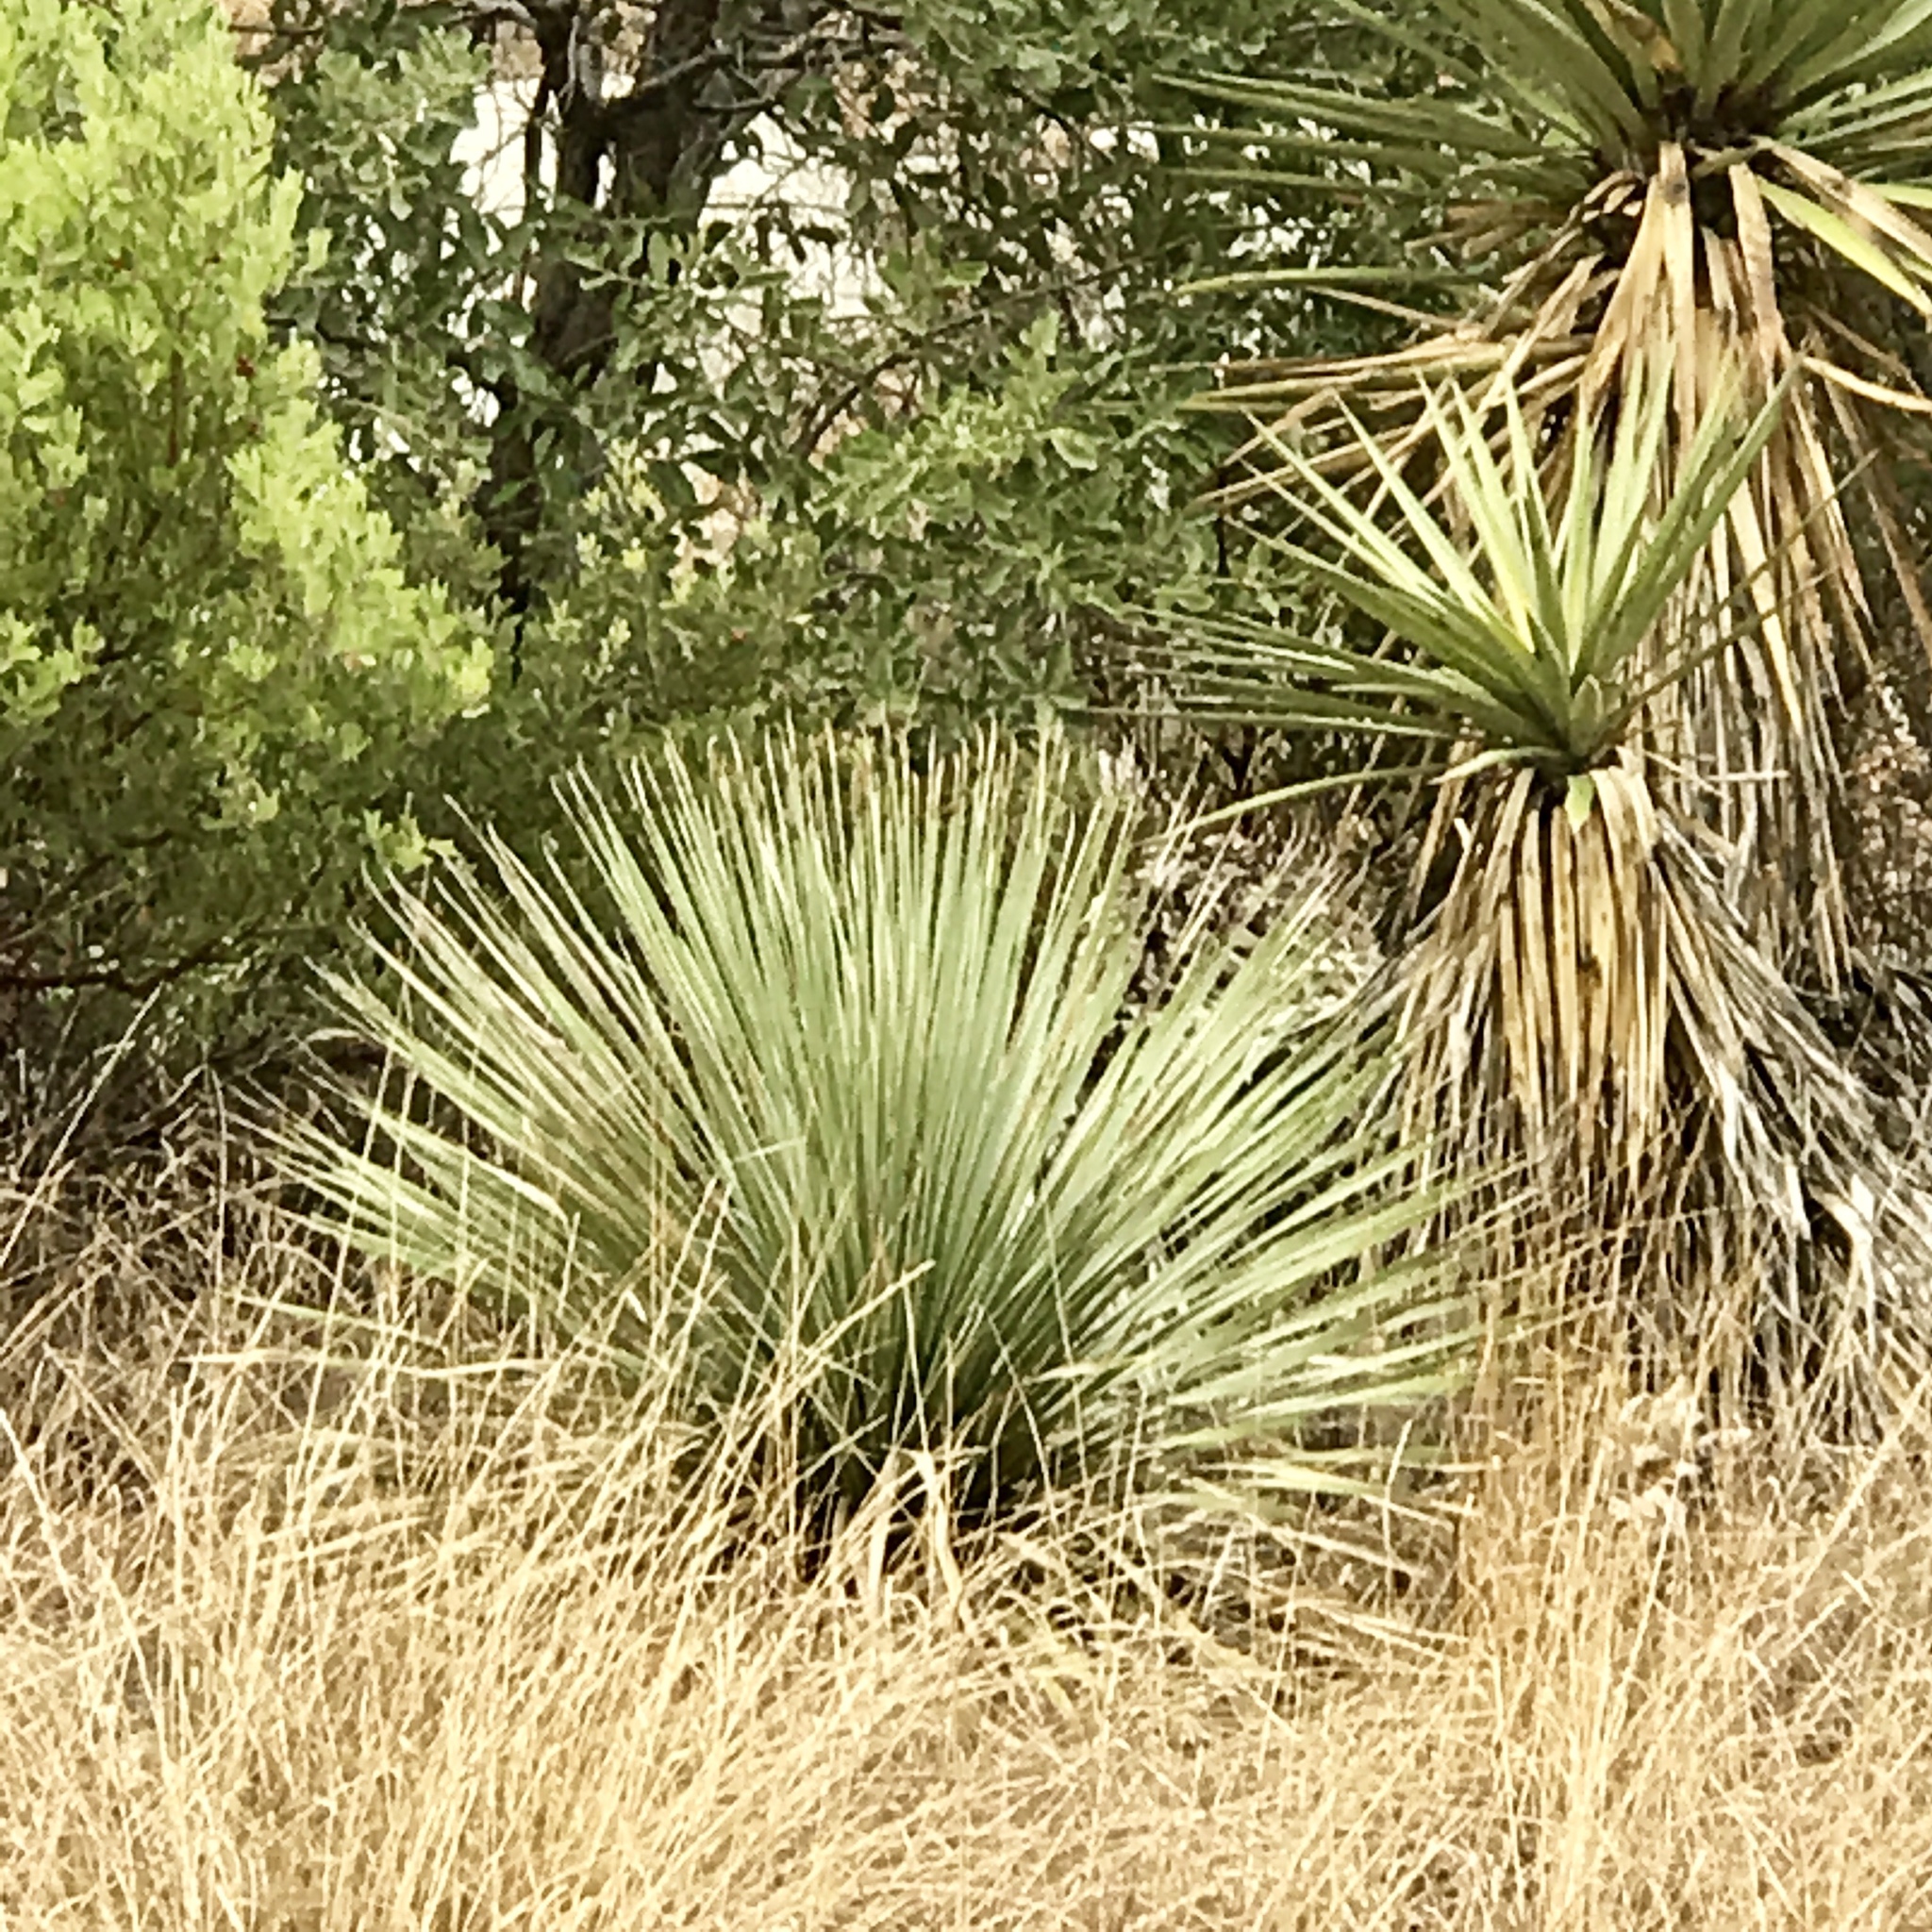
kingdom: Plantae
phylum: Tracheophyta
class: Liliopsida
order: Asparagales
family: Asparagaceae
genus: Dasylirion
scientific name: Dasylirion wheeleri
